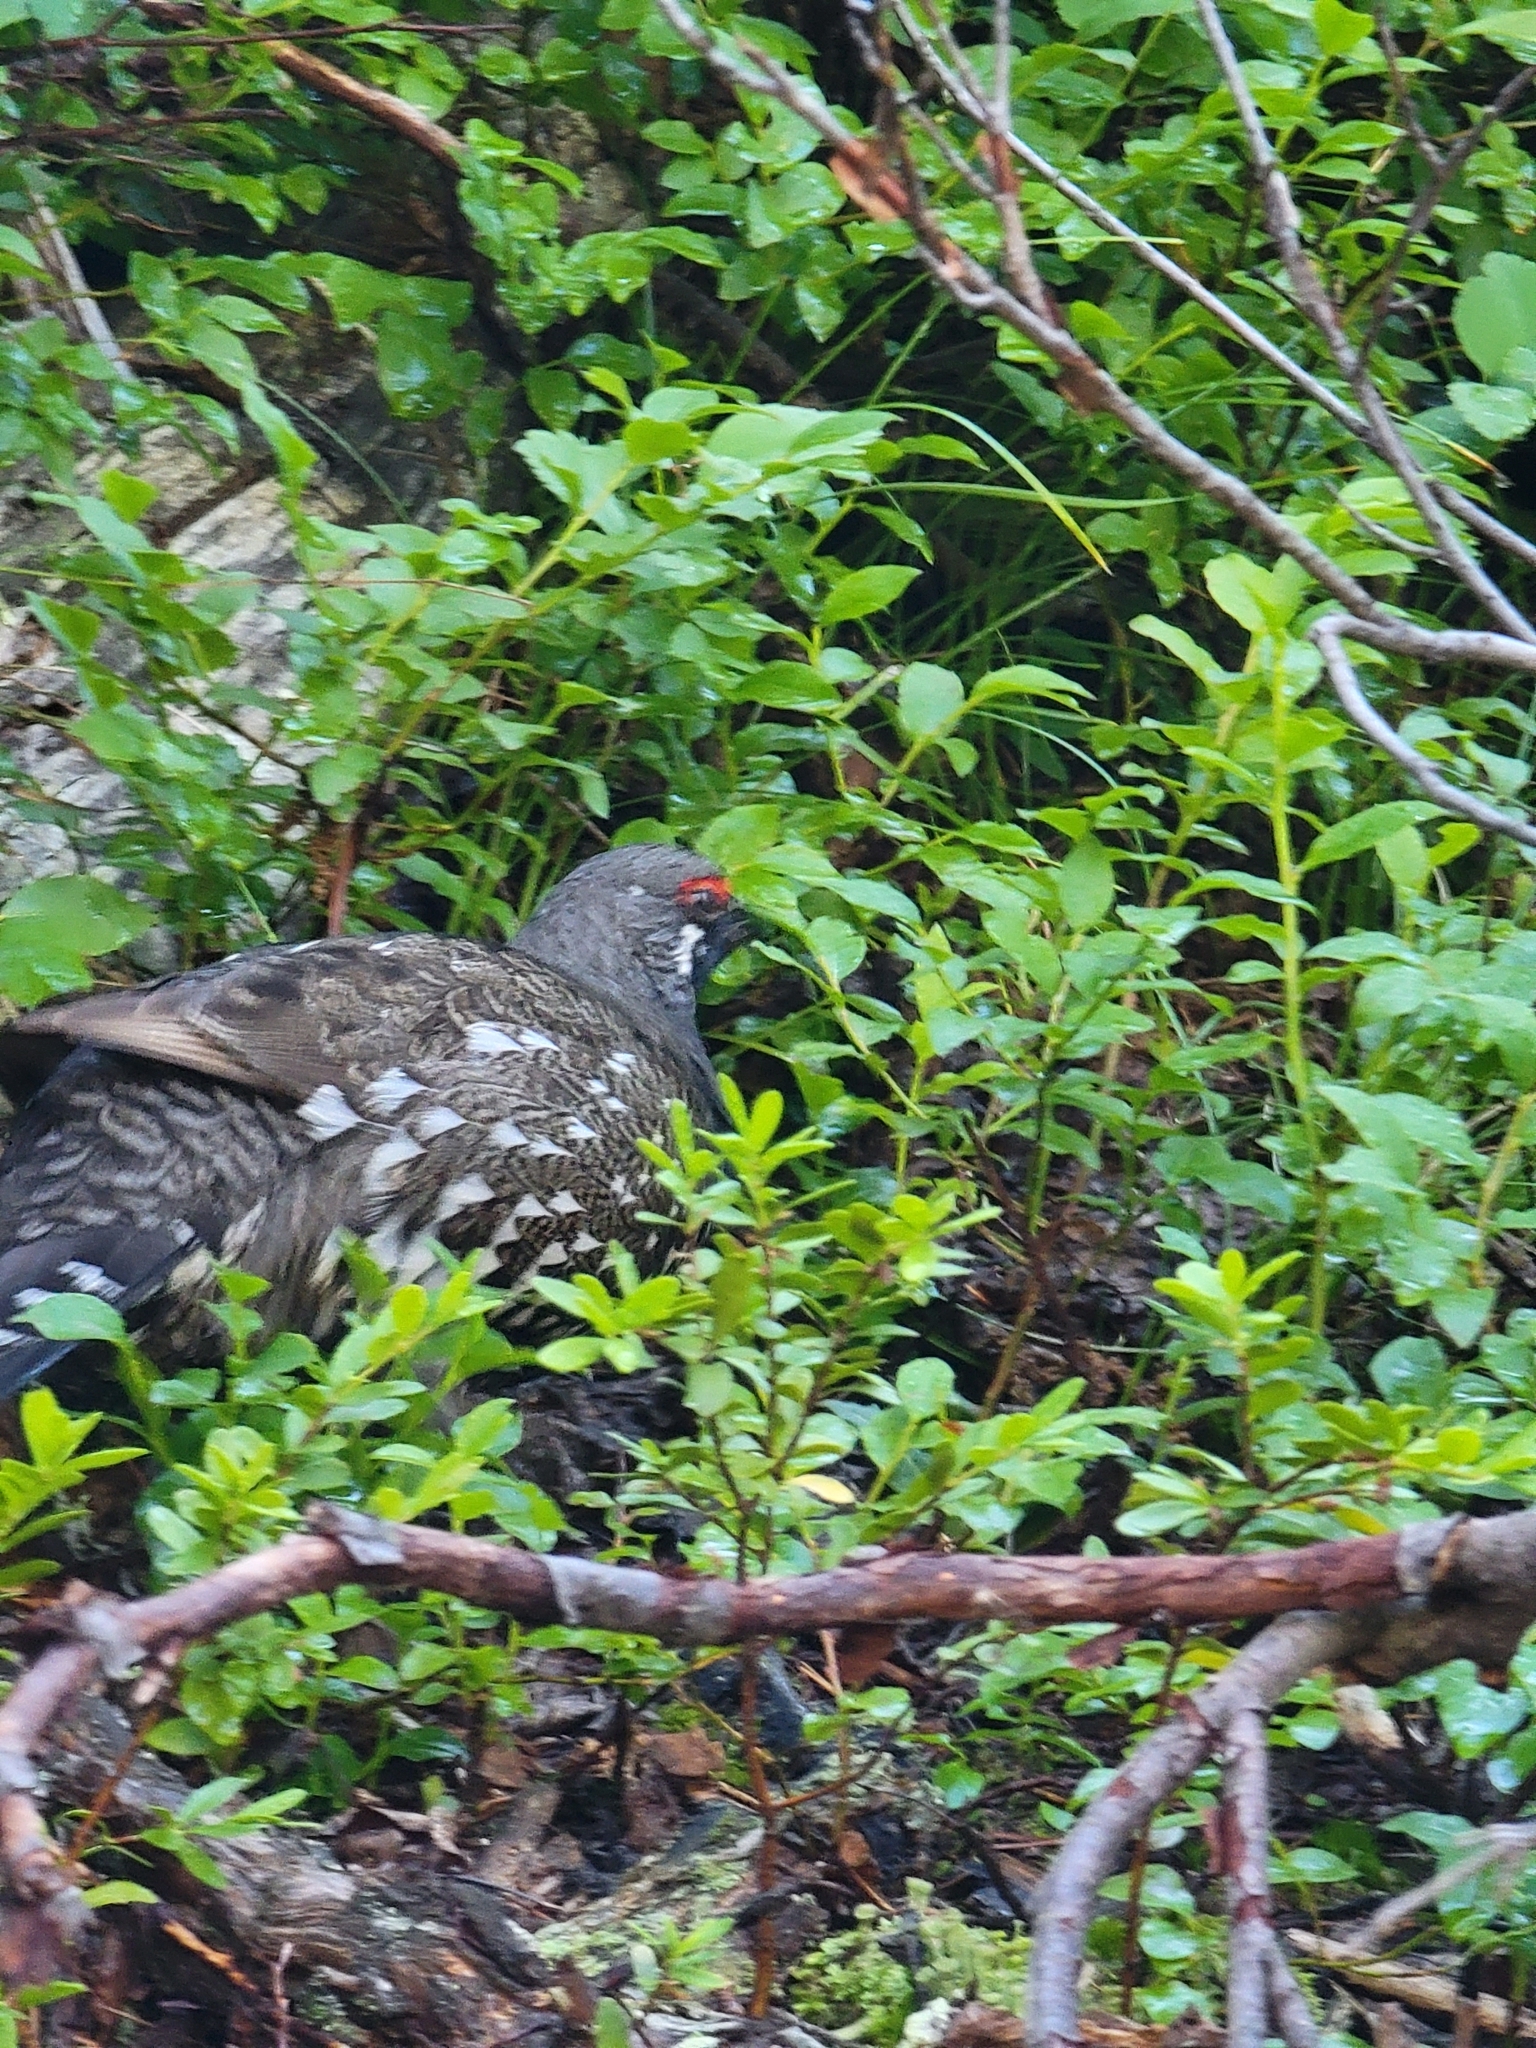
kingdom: Animalia
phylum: Chordata
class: Aves
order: Galliformes
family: Phasianidae
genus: Canachites
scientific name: Canachites canadensis
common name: Spruce grouse
